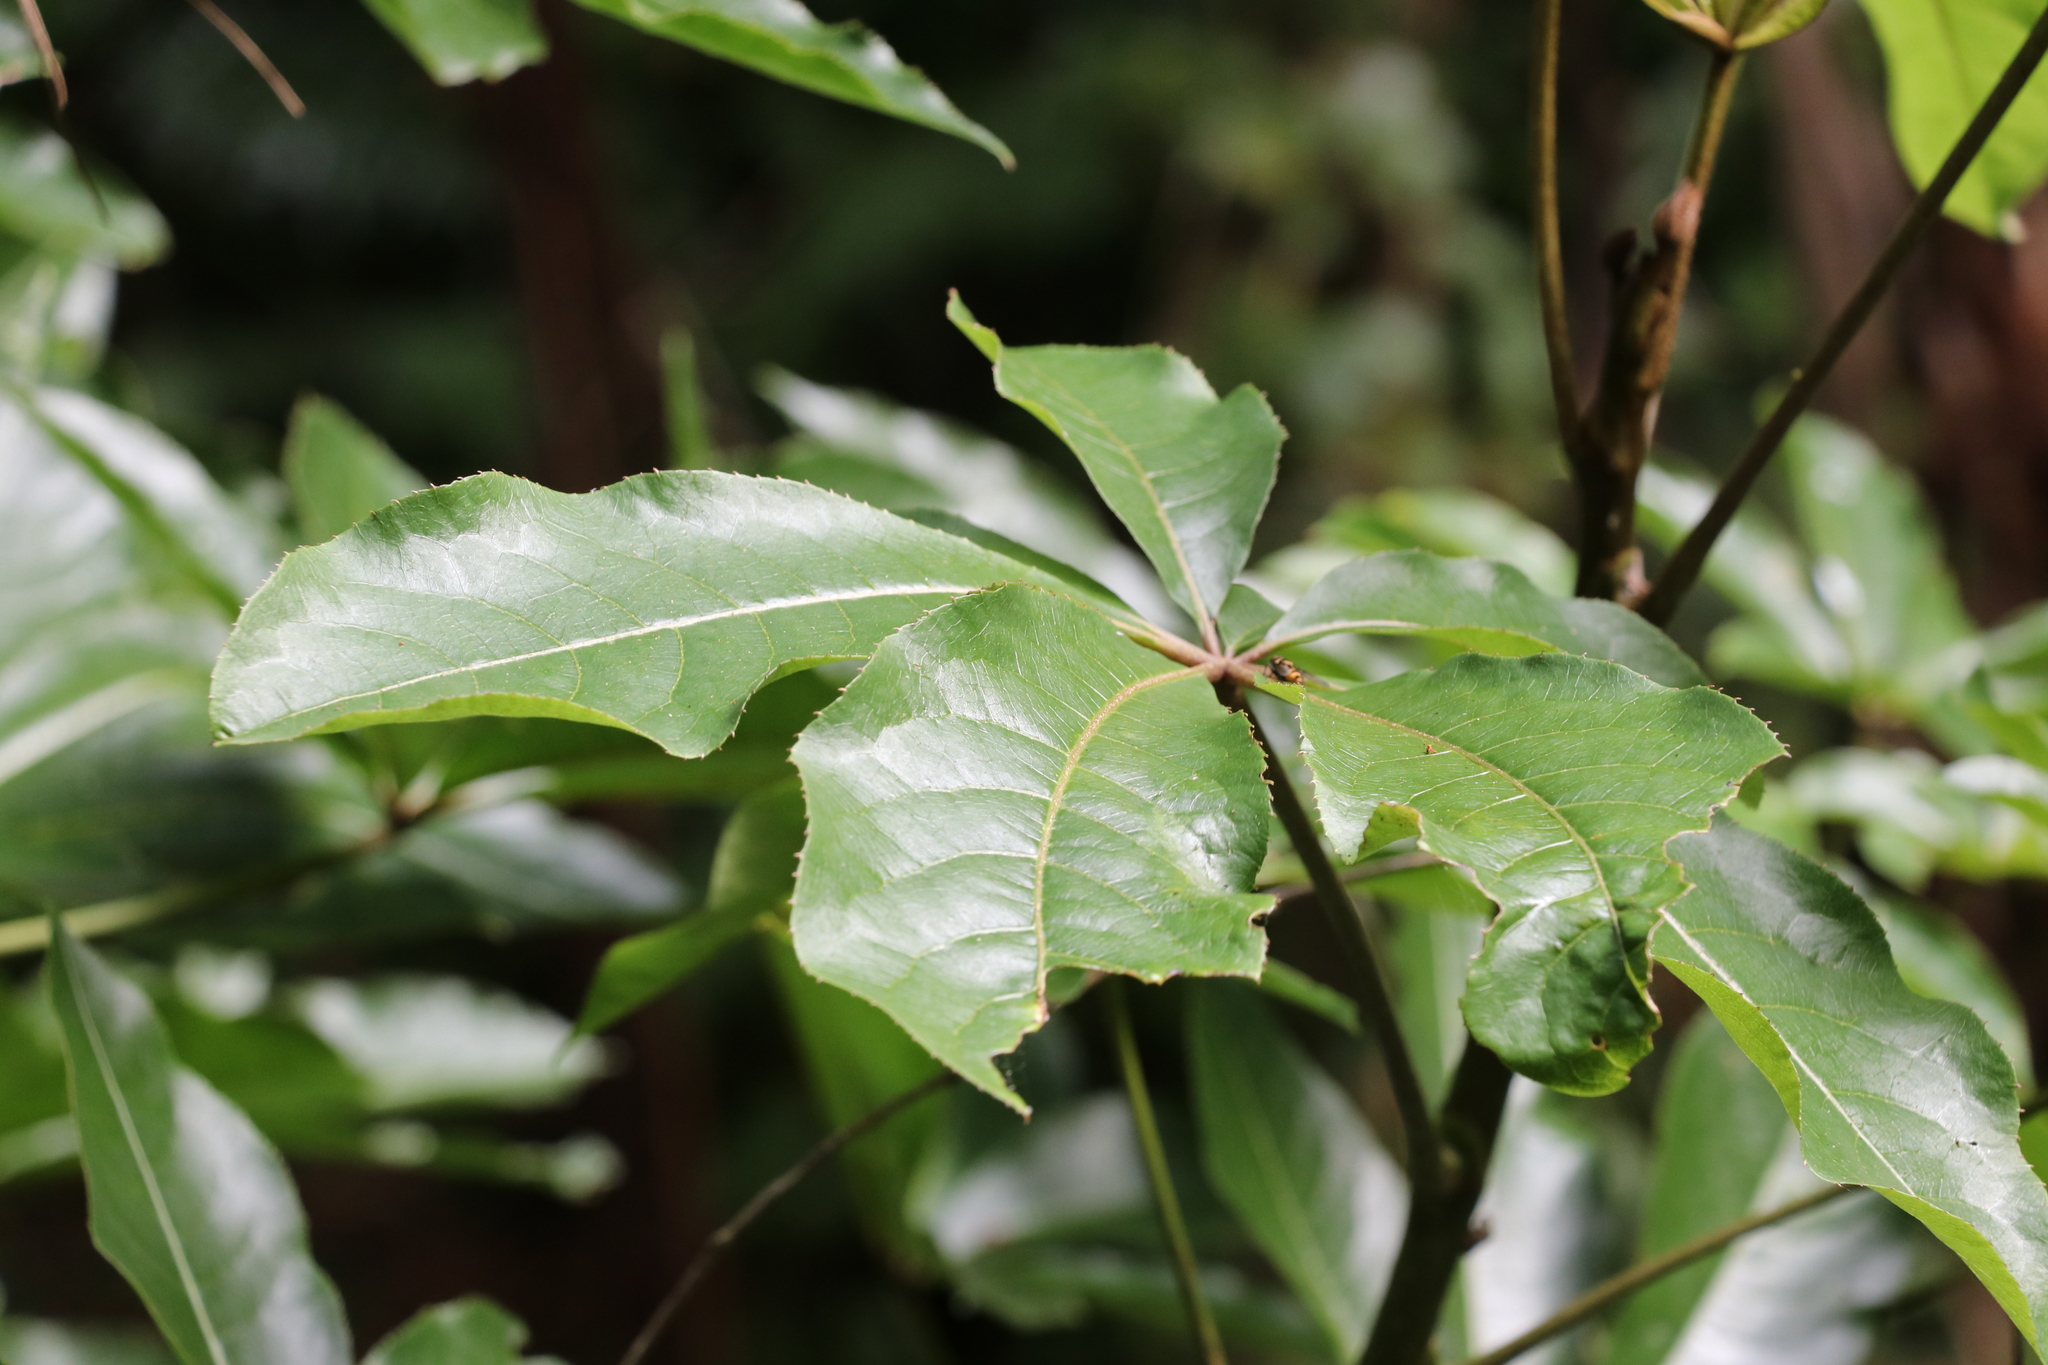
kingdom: Plantae
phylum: Tracheophyta
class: Magnoliopsida
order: Apiales
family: Araliaceae
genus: Schefflera
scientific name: Schefflera digitata
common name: Pate
